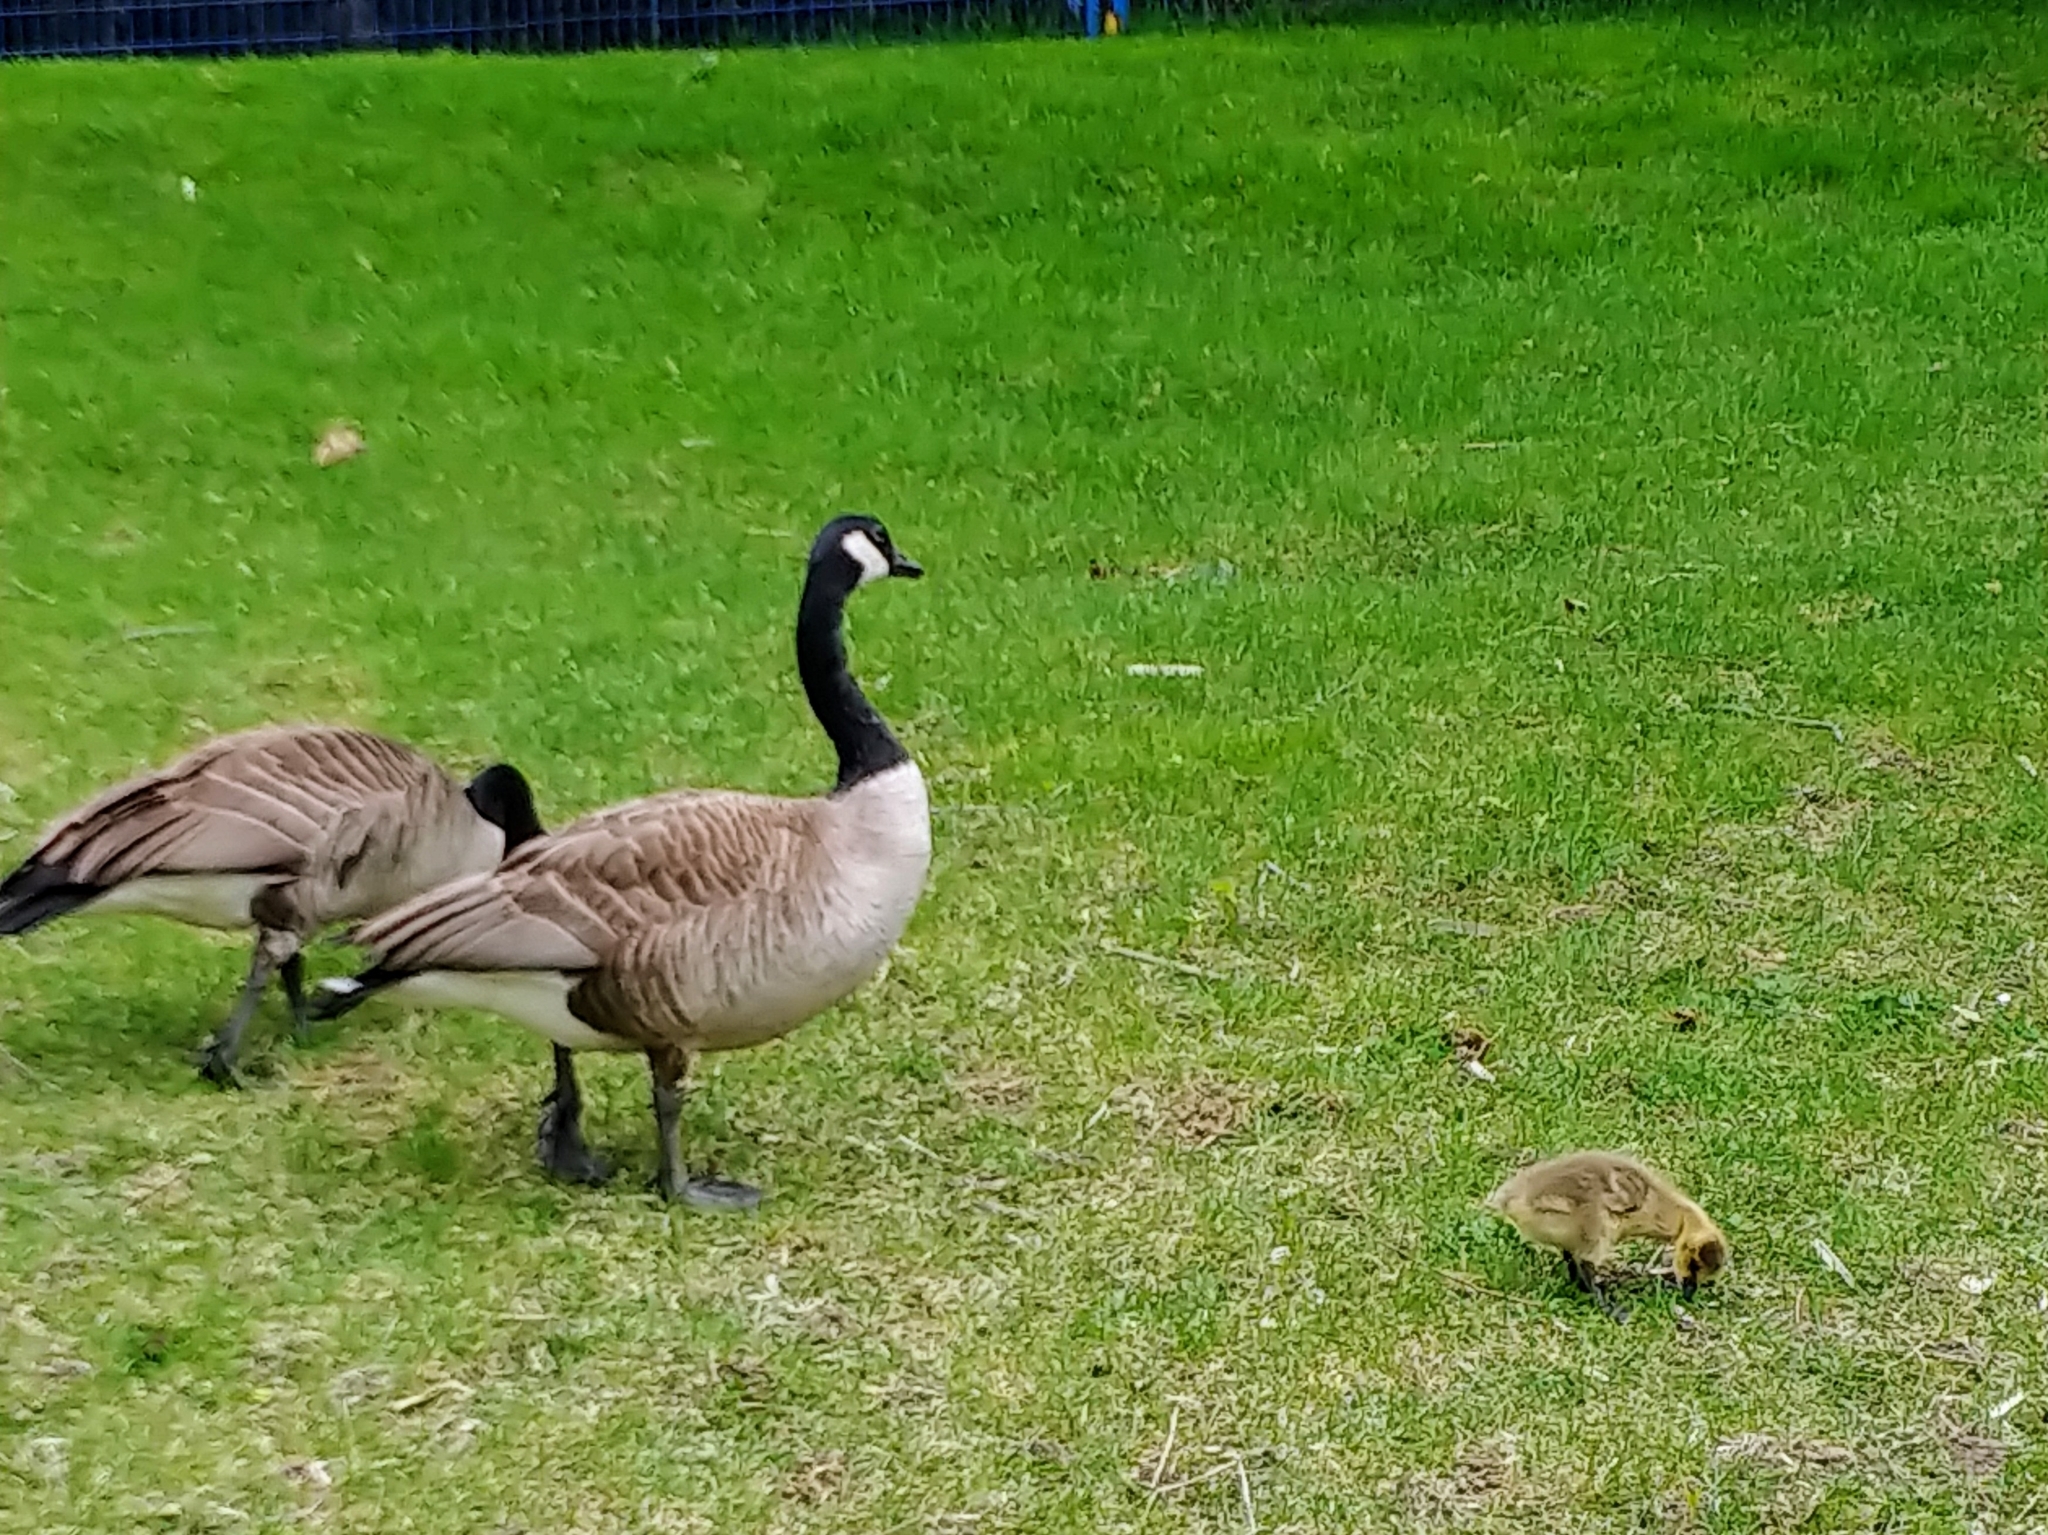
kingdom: Animalia
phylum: Chordata
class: Aves
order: Anseriformes
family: Anatidae
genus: Branta
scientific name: Branta canadensis
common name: Canada goose
